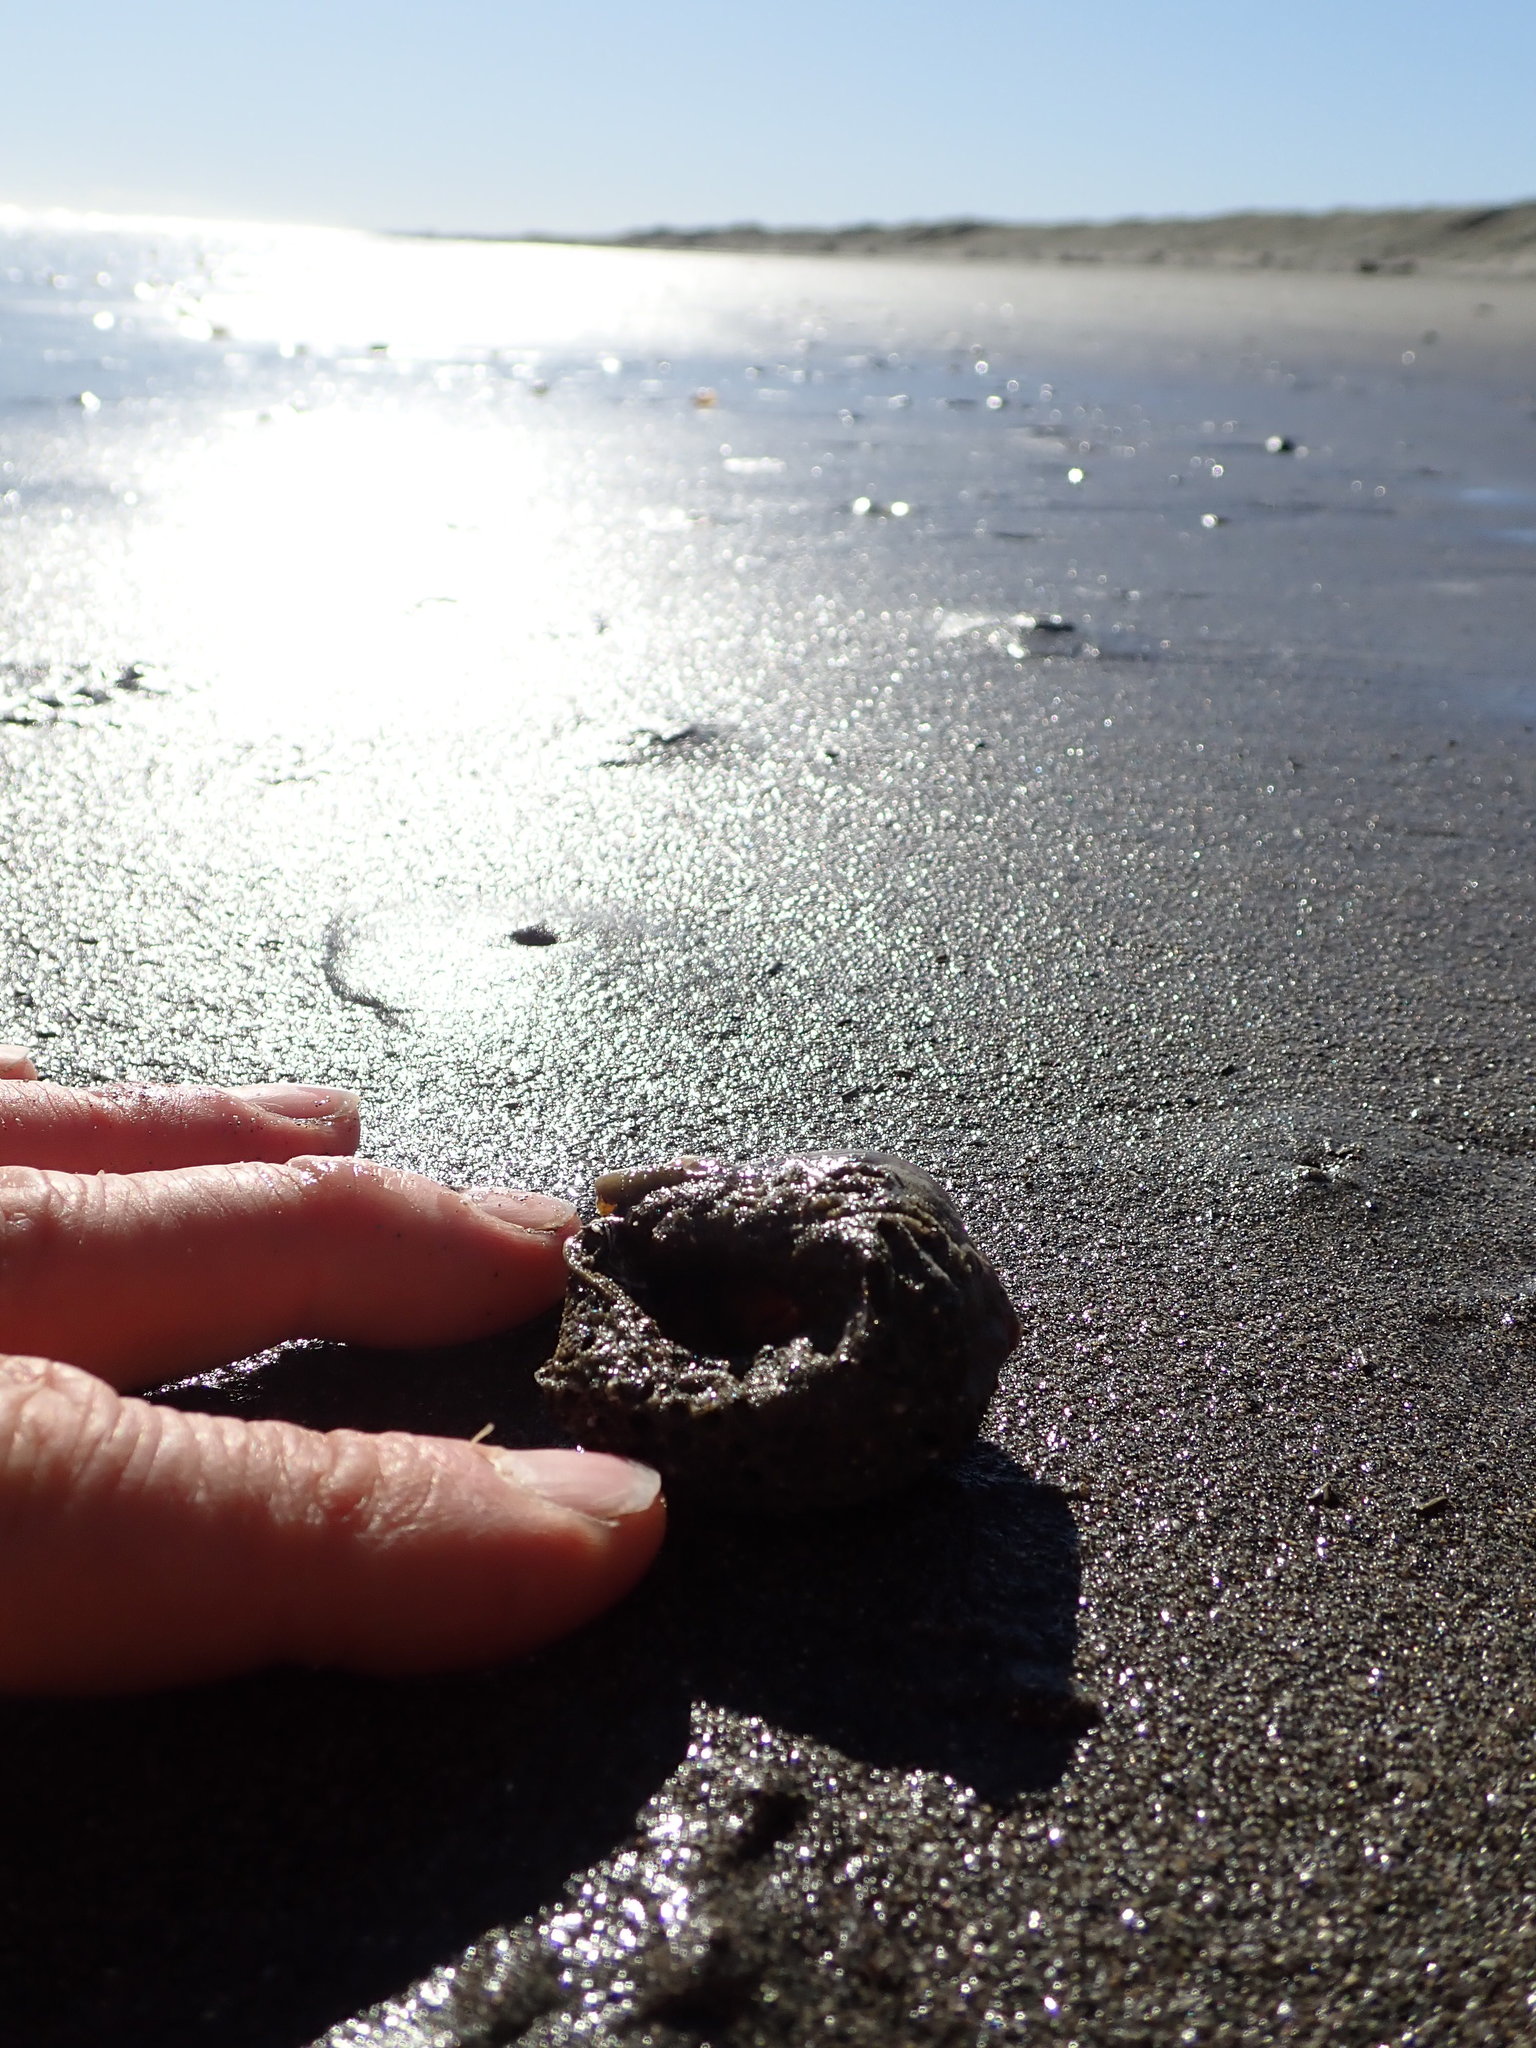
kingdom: Animalia
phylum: Annelida
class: Polychaeta
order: Sabellida
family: Sabellariidae
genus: Neosabellaria
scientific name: Neosabellaria kaiparaensis
